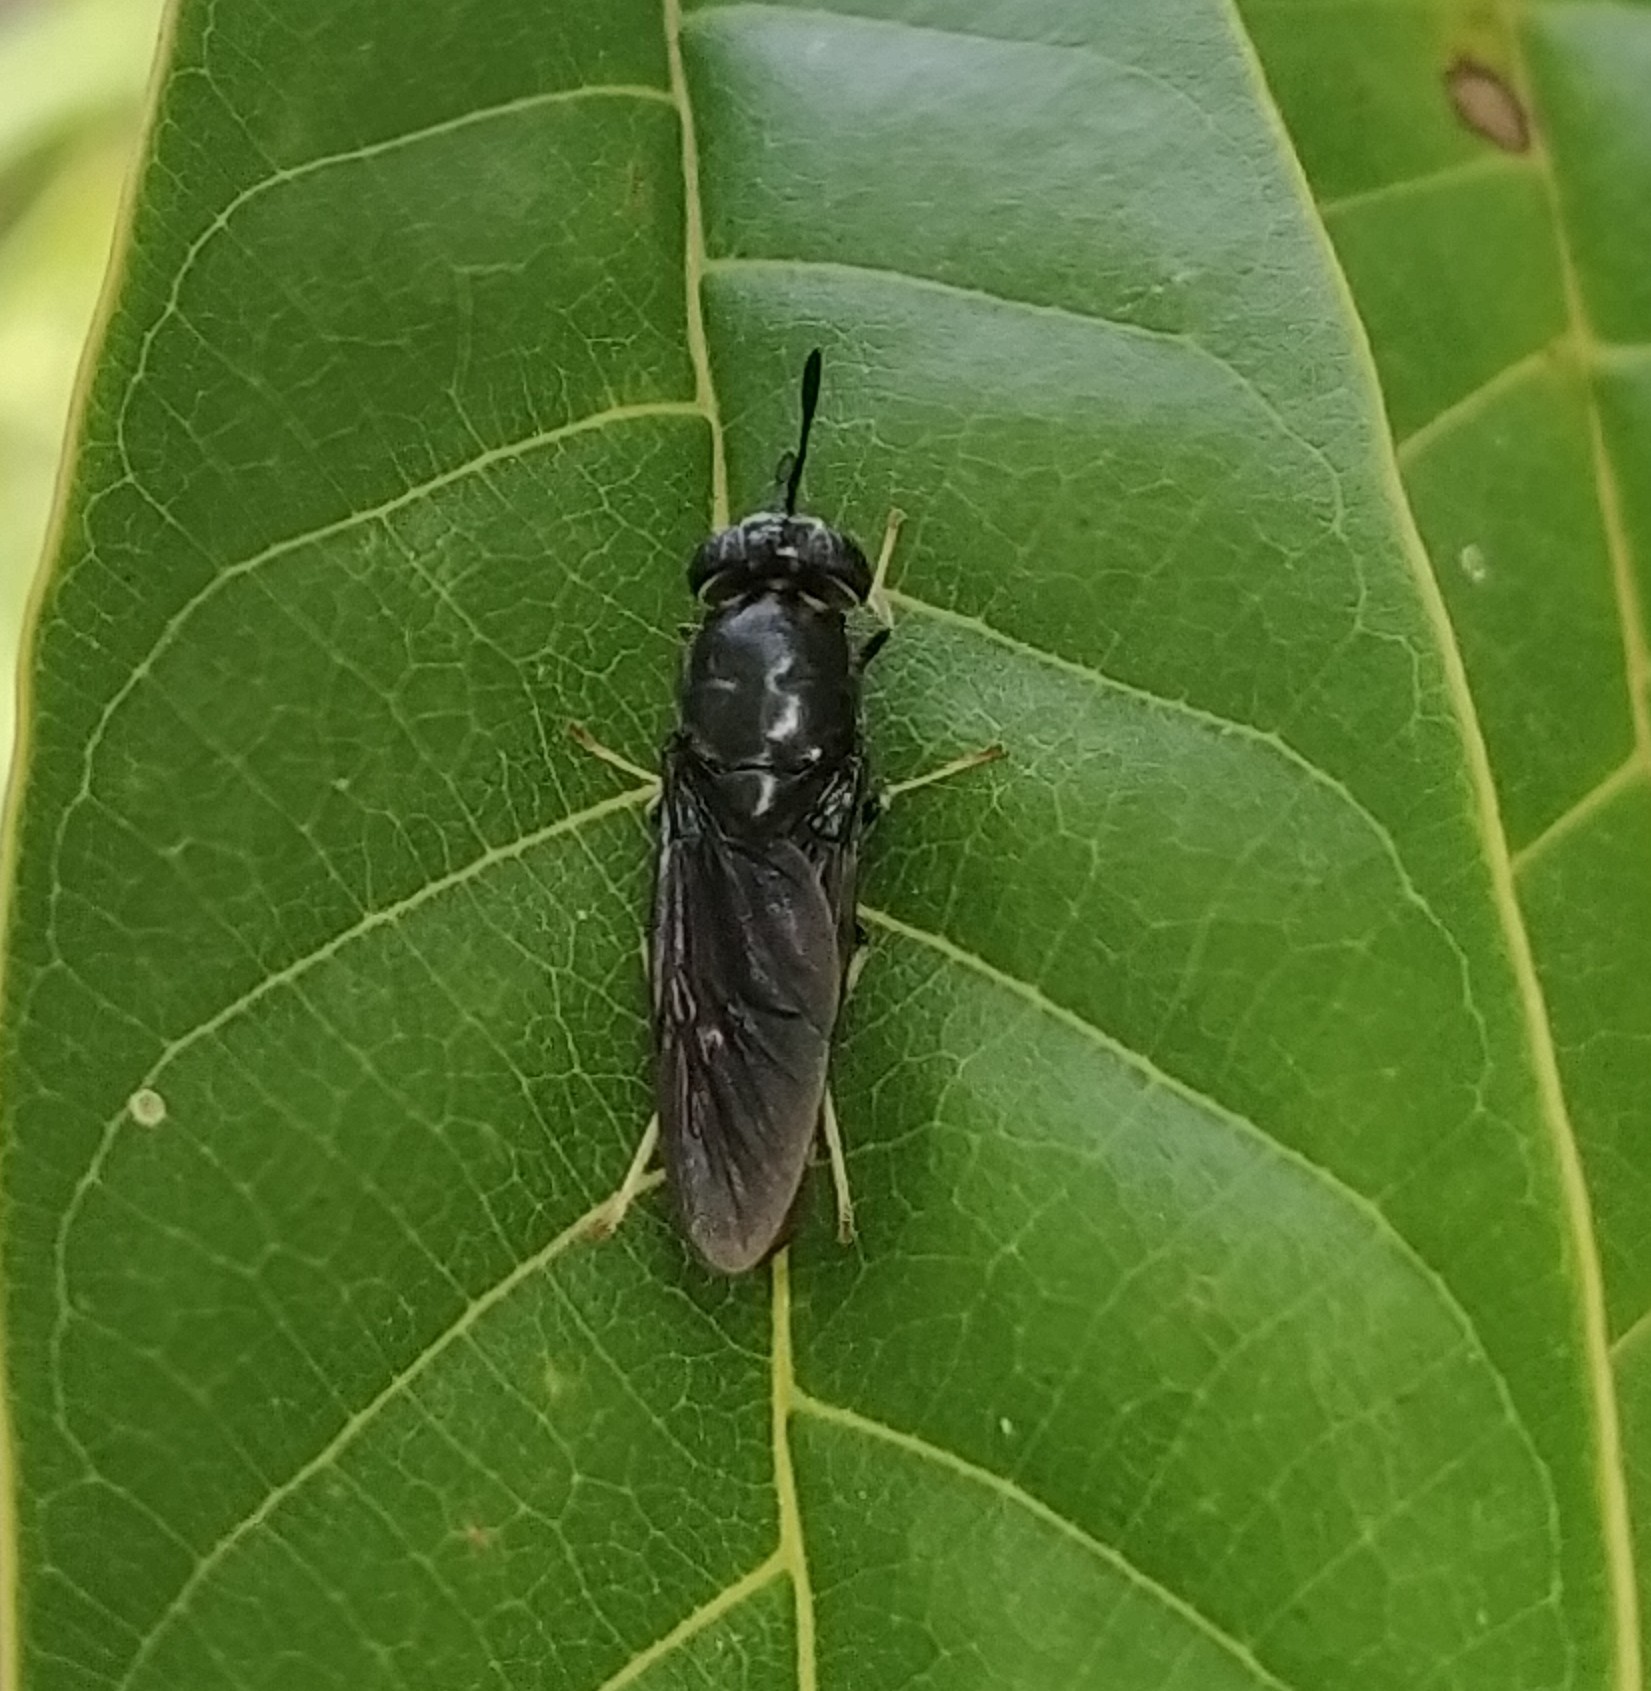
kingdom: Animalia
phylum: Arthropoda
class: Insecta
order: Diptera
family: Stratiomyidae
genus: Hermetia
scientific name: Hermetia illucens
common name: Black soldier fly
